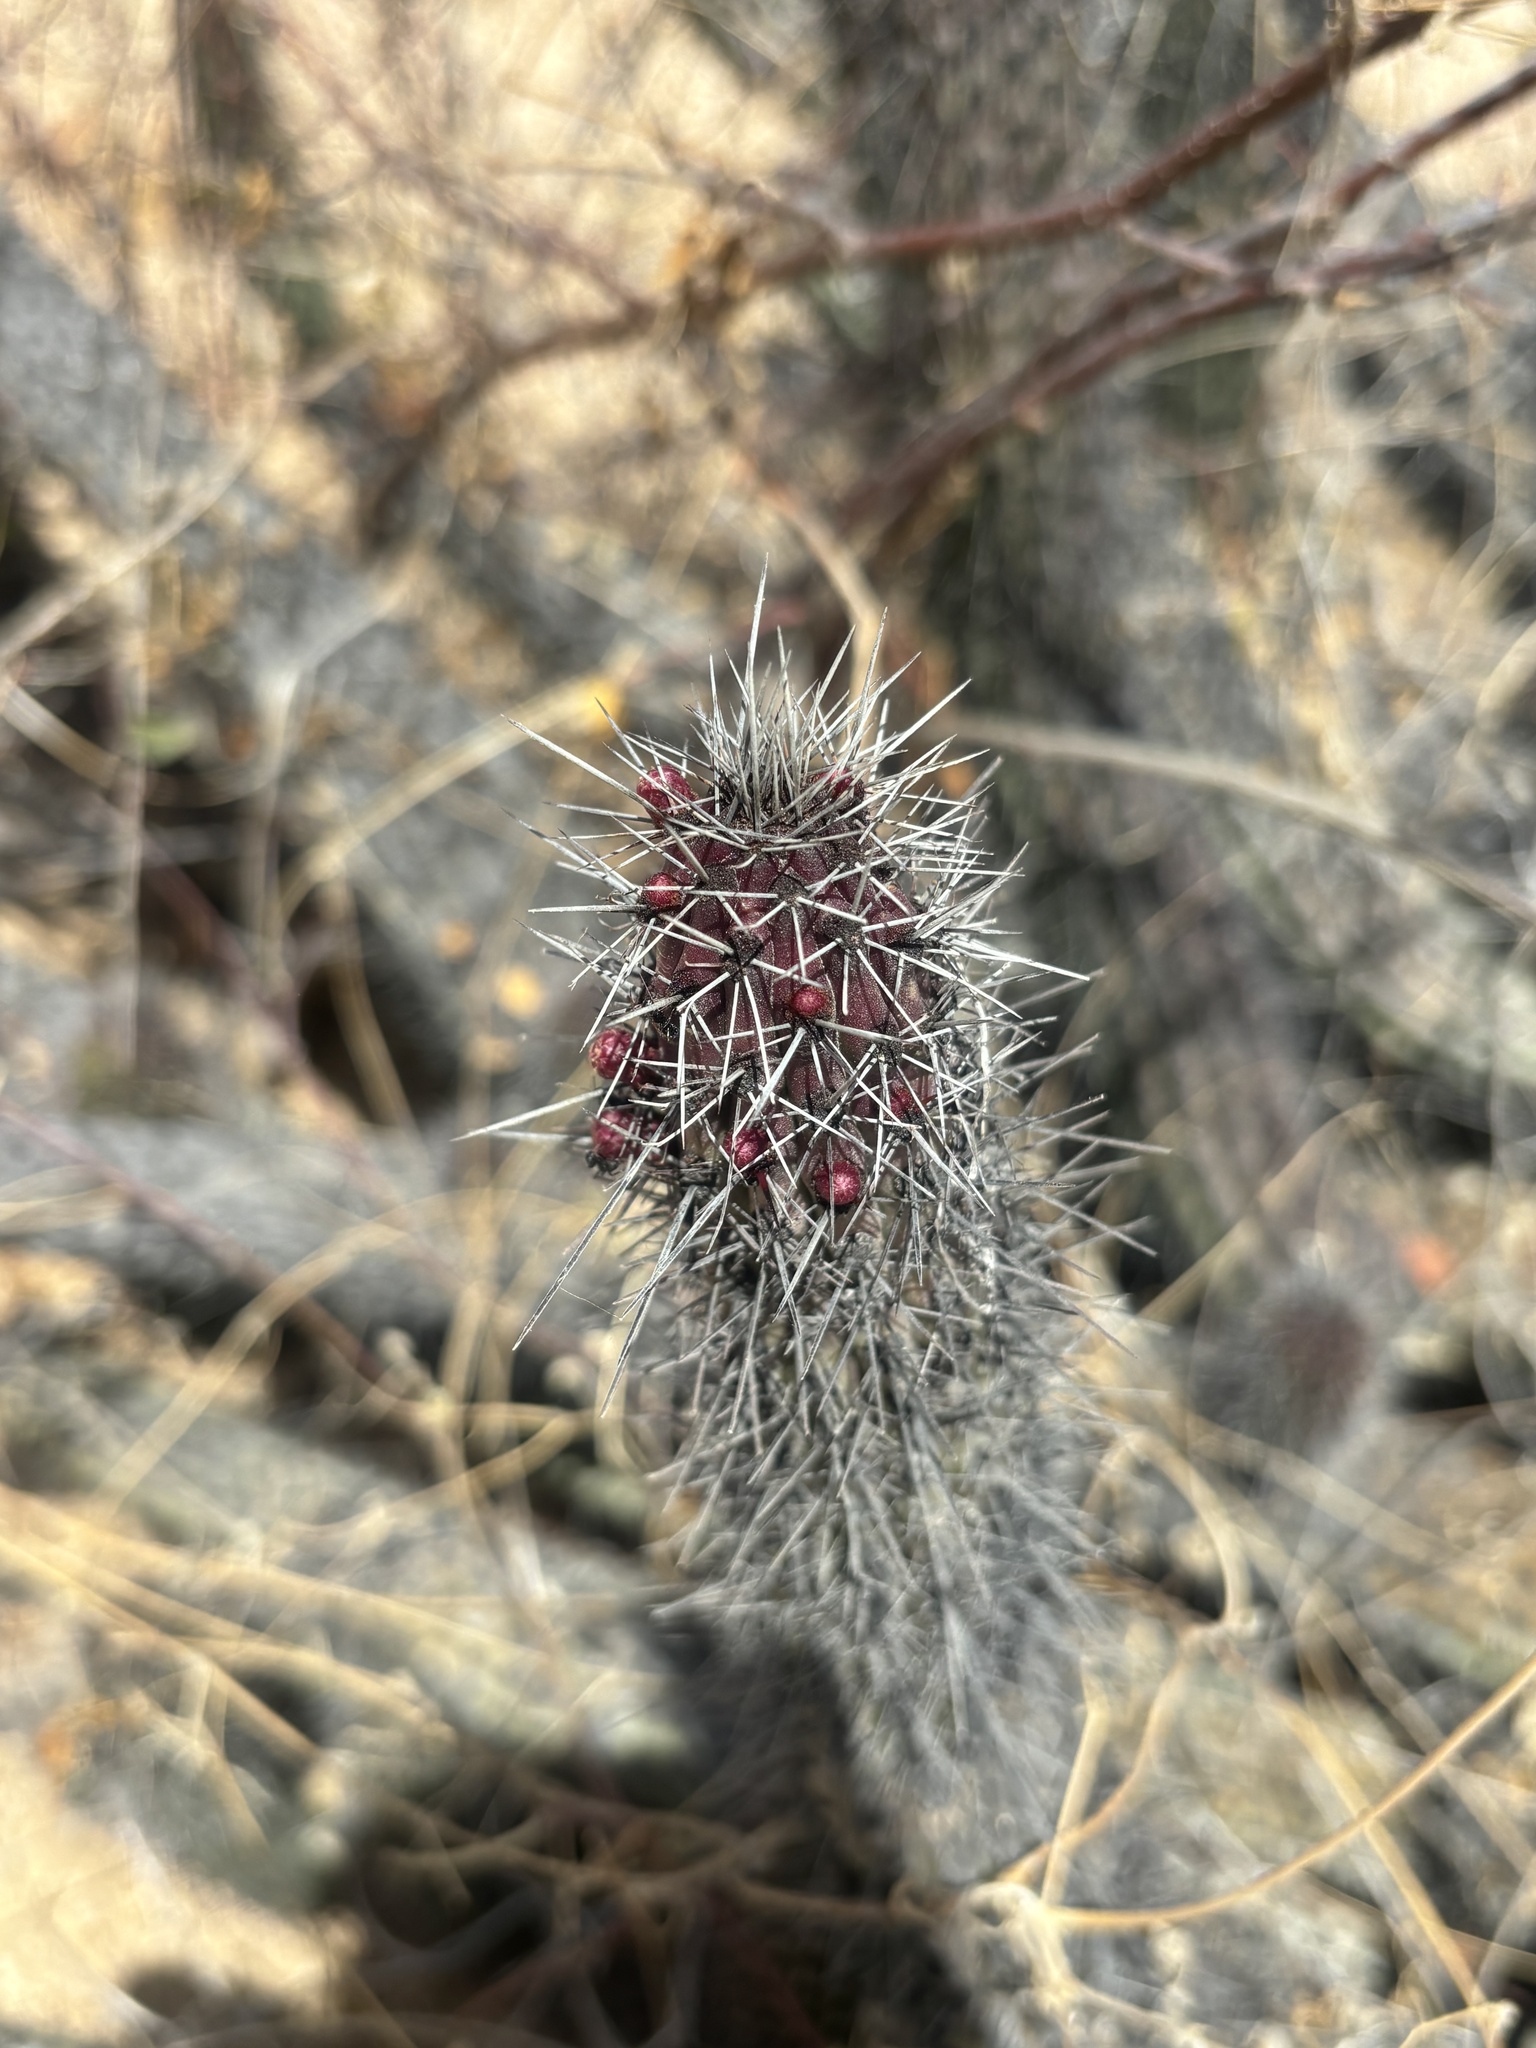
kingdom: Plantae
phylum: Tracheophyta
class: Magnoliopsida
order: Caryophyllales
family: Cactaceae
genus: Stenocereus
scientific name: Stenocereus thurberi
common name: Organ pipe cactus
